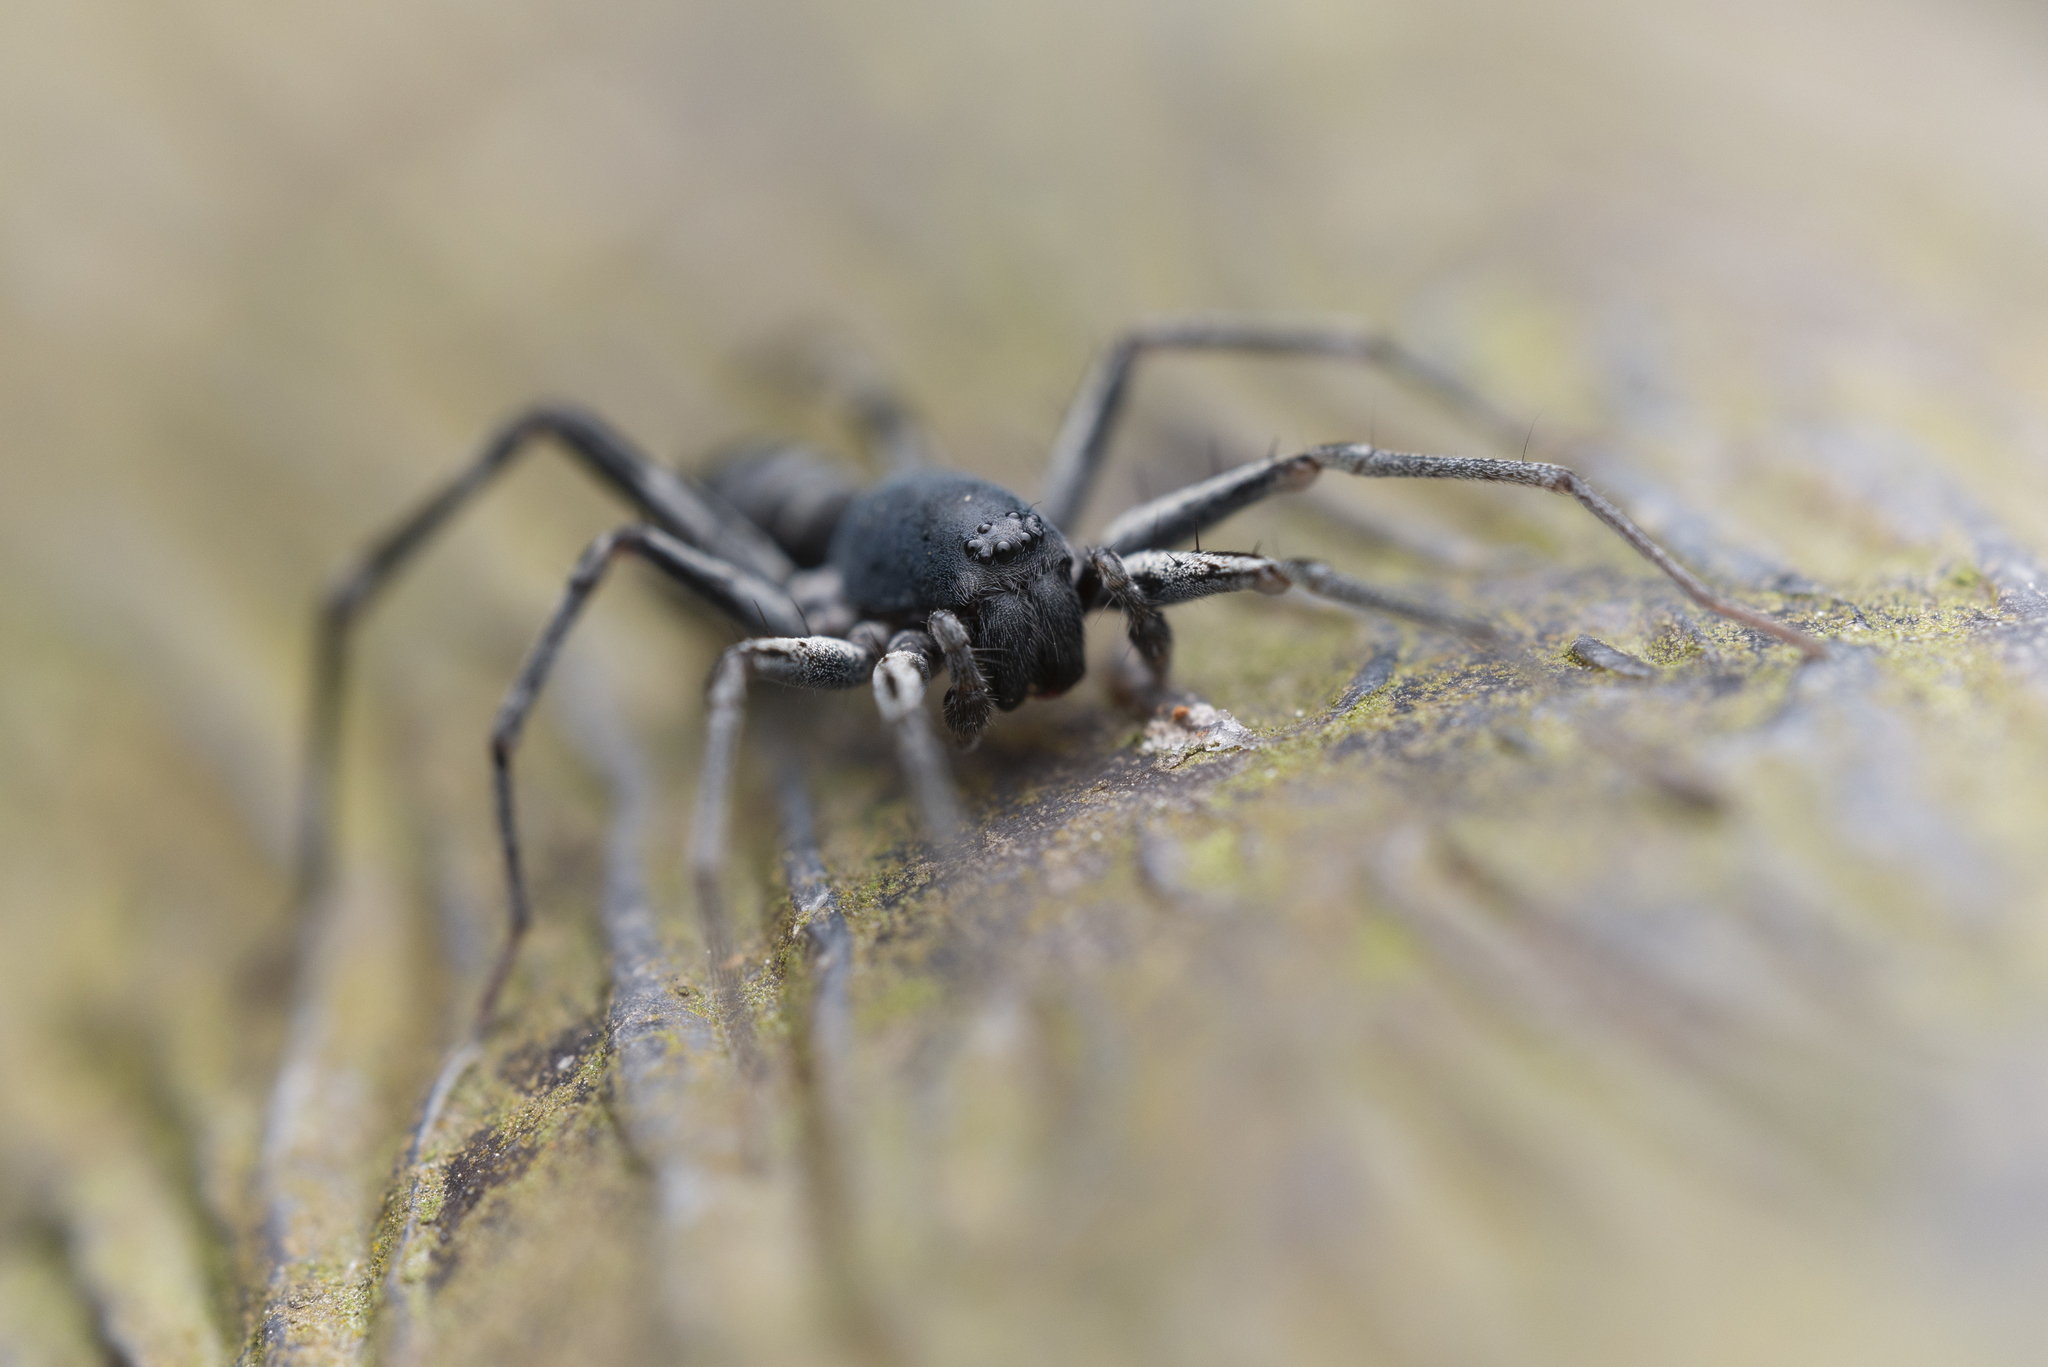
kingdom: Animalia
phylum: Arthropoda
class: Arachnida
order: Araneae
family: Corinnidae
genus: Corinnomma
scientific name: Corinnomma severum
